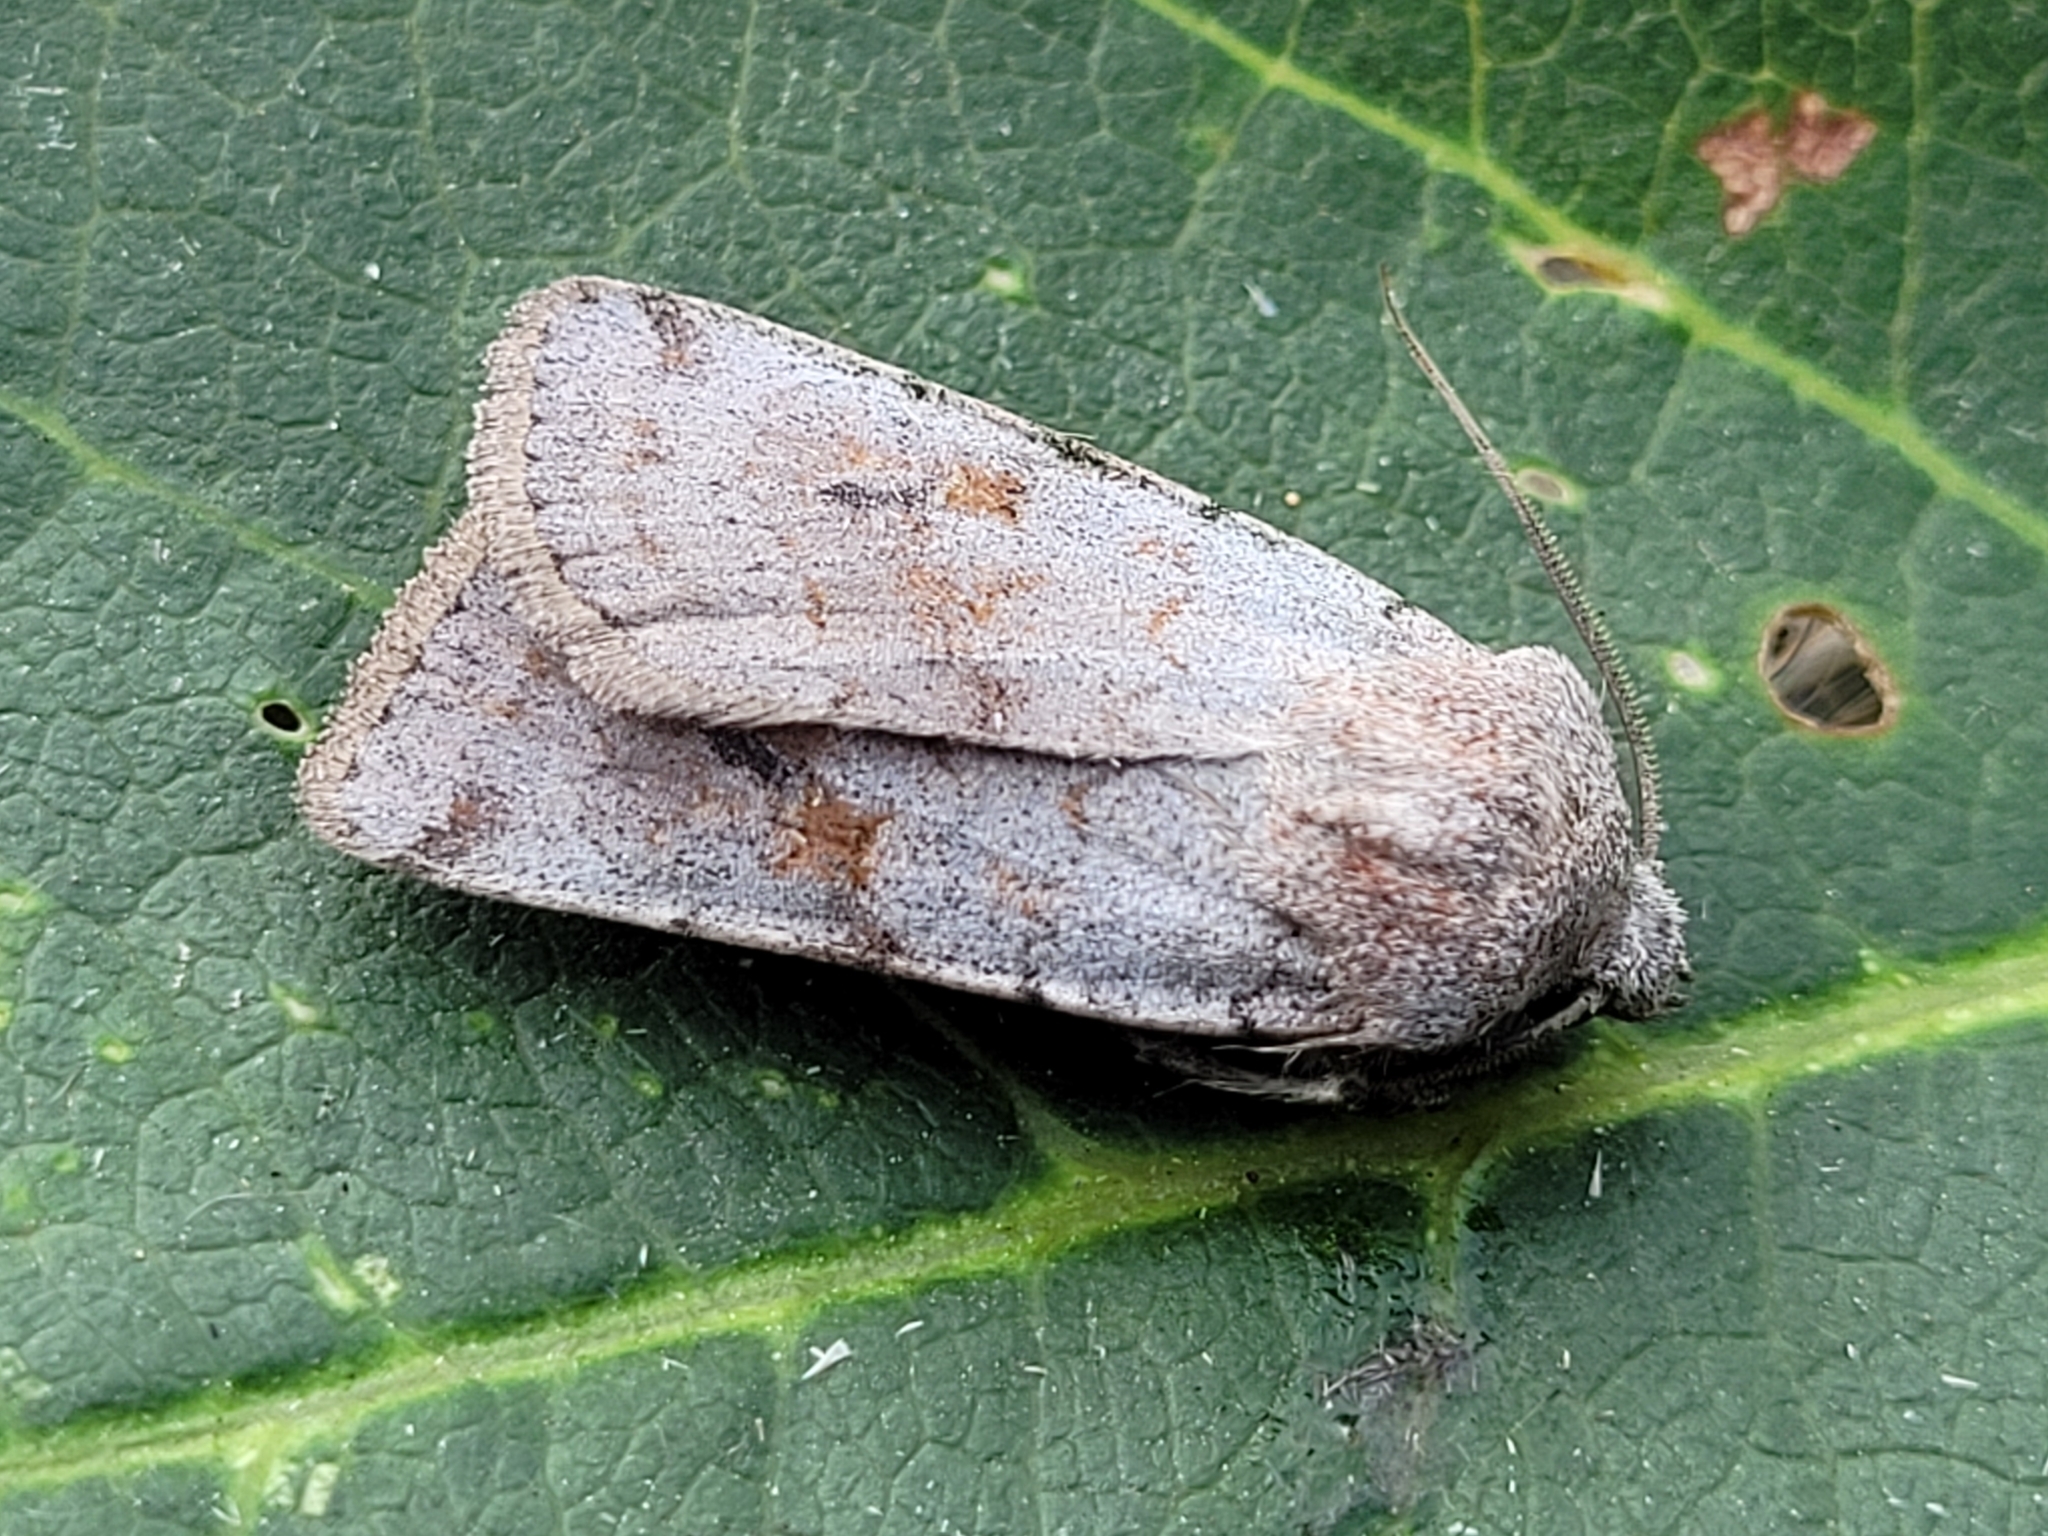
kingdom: Animalia
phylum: Arthropoda
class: Insecta
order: Lepidoptera
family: Noctuidae
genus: Euxoa
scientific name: Euxoa munis
